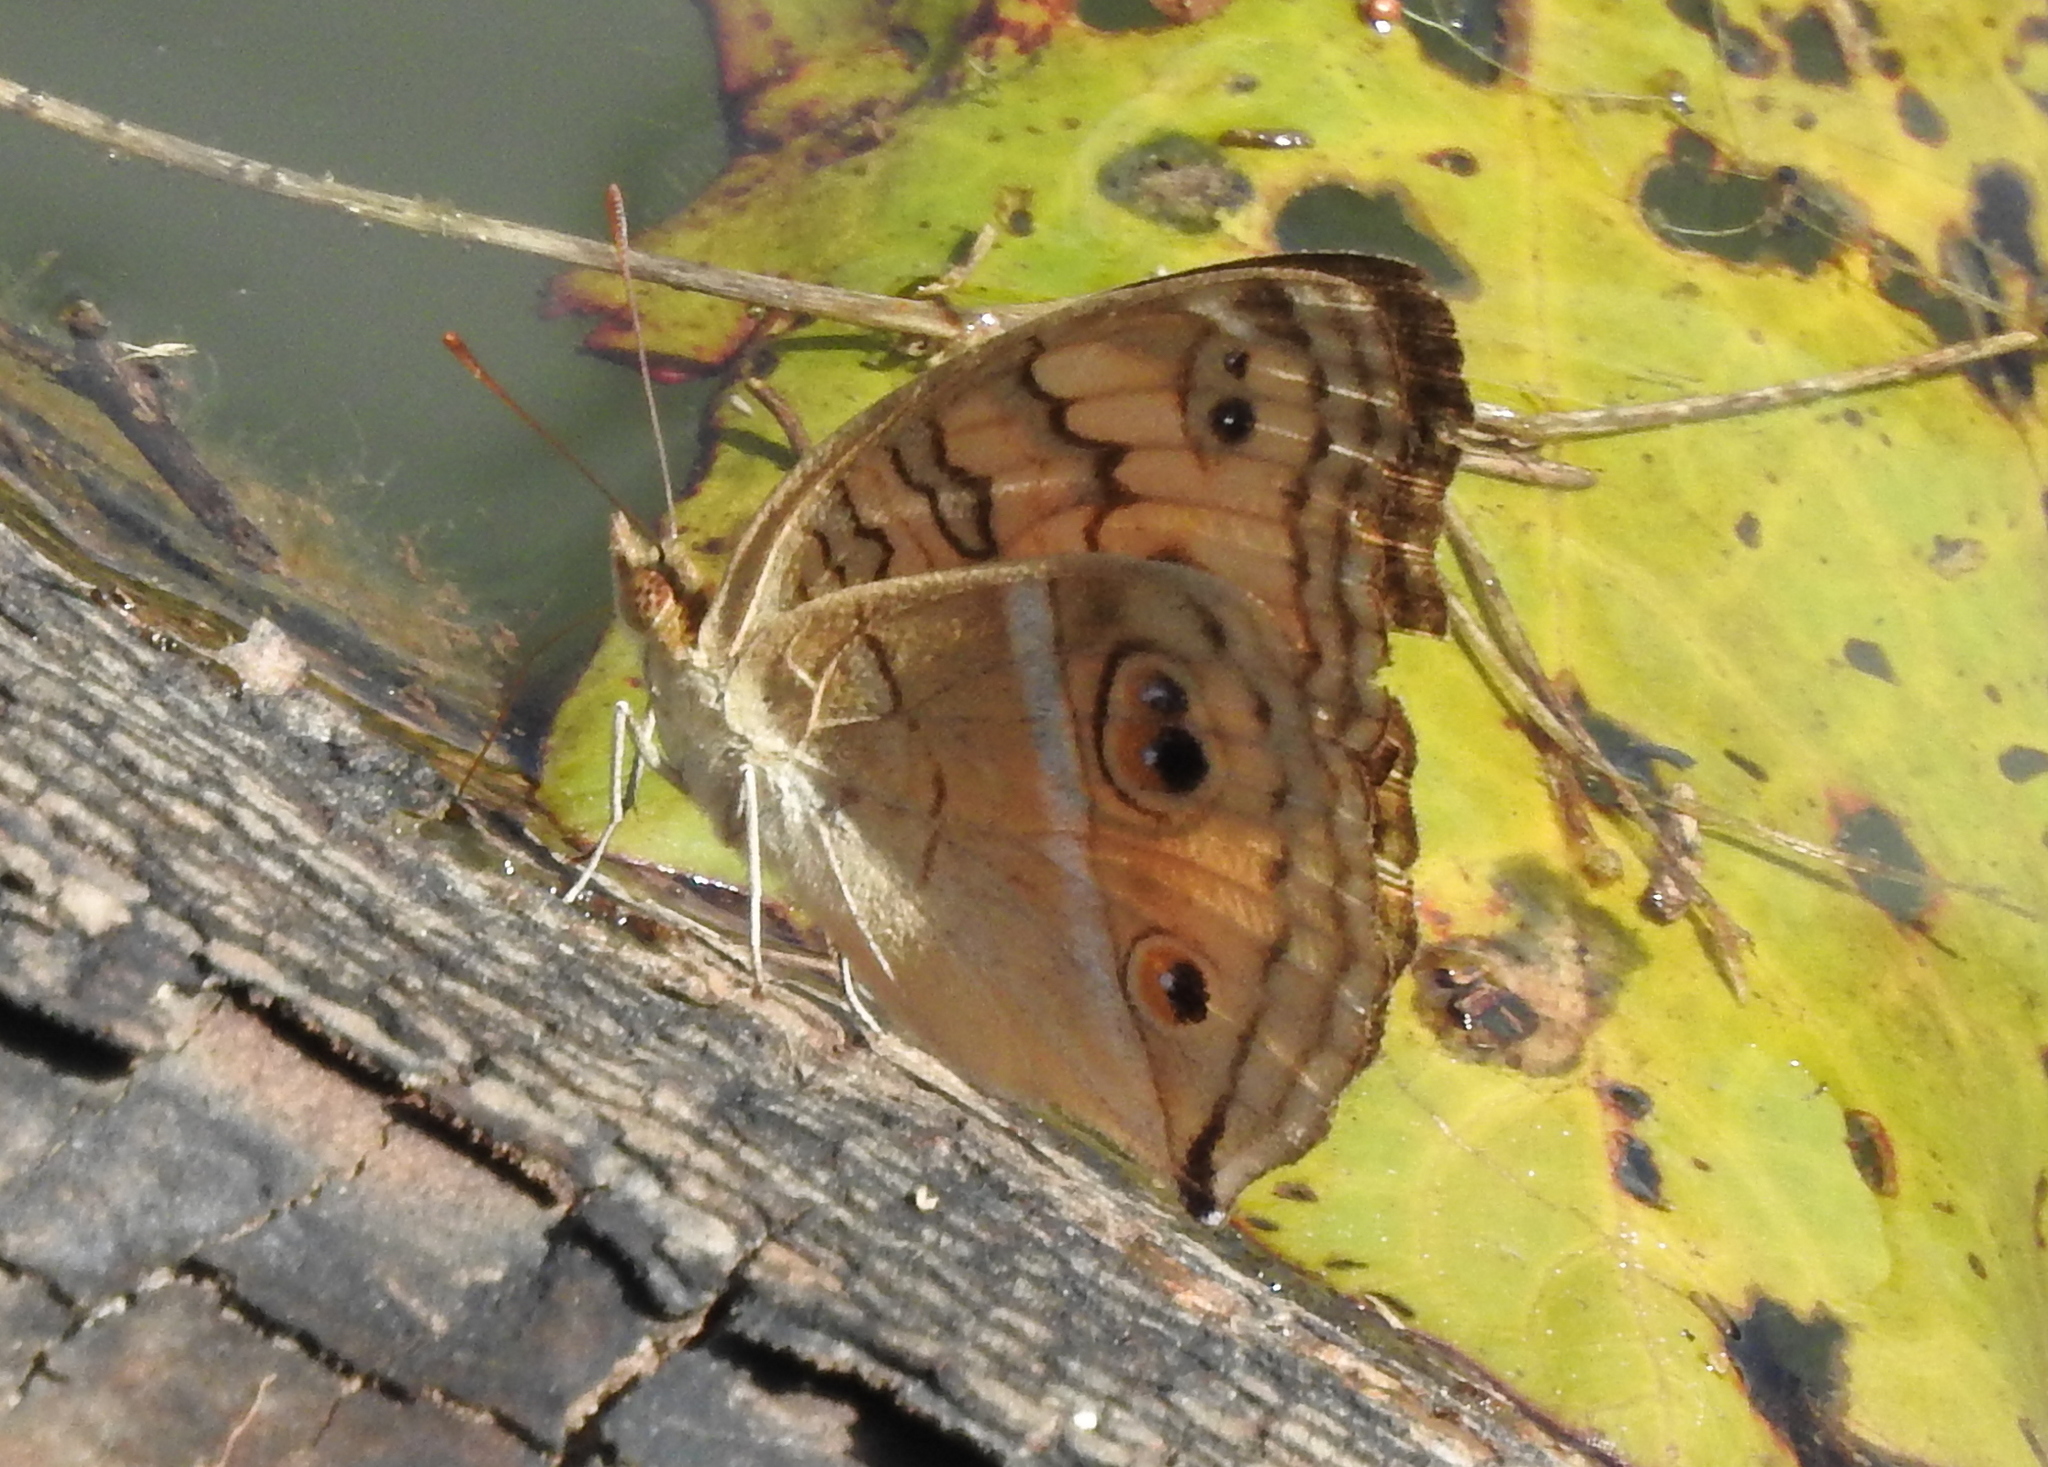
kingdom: Animalia
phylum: Arthropoda
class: Insecta
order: Lepidoptera
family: Nymphalidae
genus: Junonia
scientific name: Junonia almana
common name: Peacock pansy
